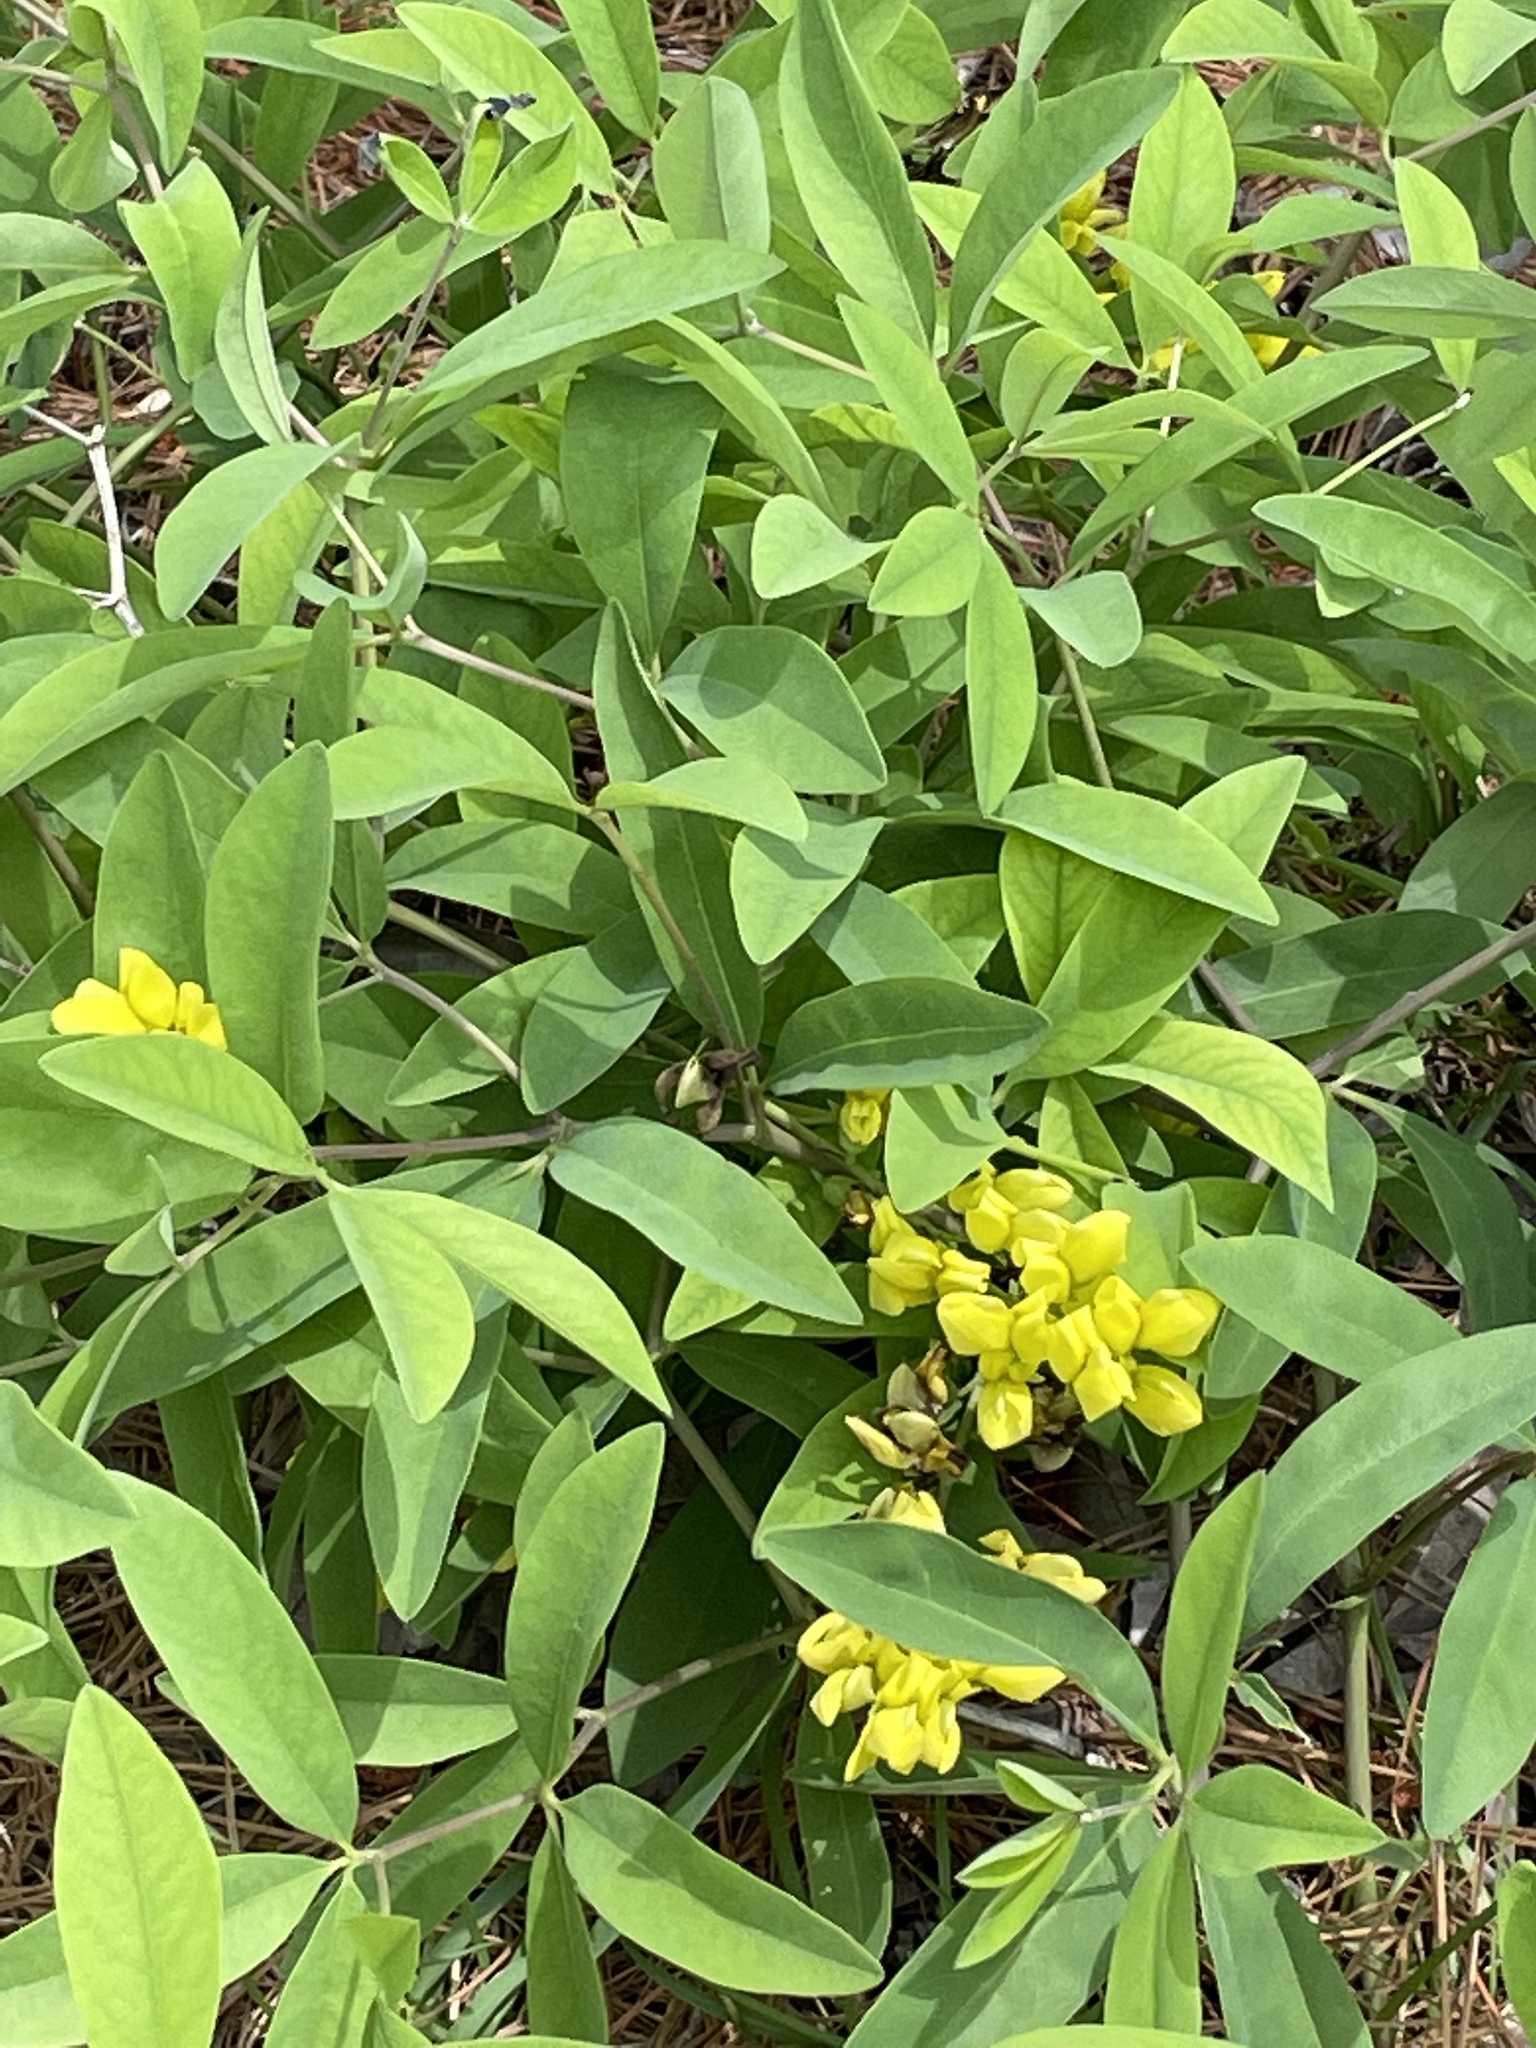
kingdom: Plantae
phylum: Tracheophyta
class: Magnoliopsida
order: Fabales
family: Fabaceae
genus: Baptisia
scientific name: Baptisia cinerea
